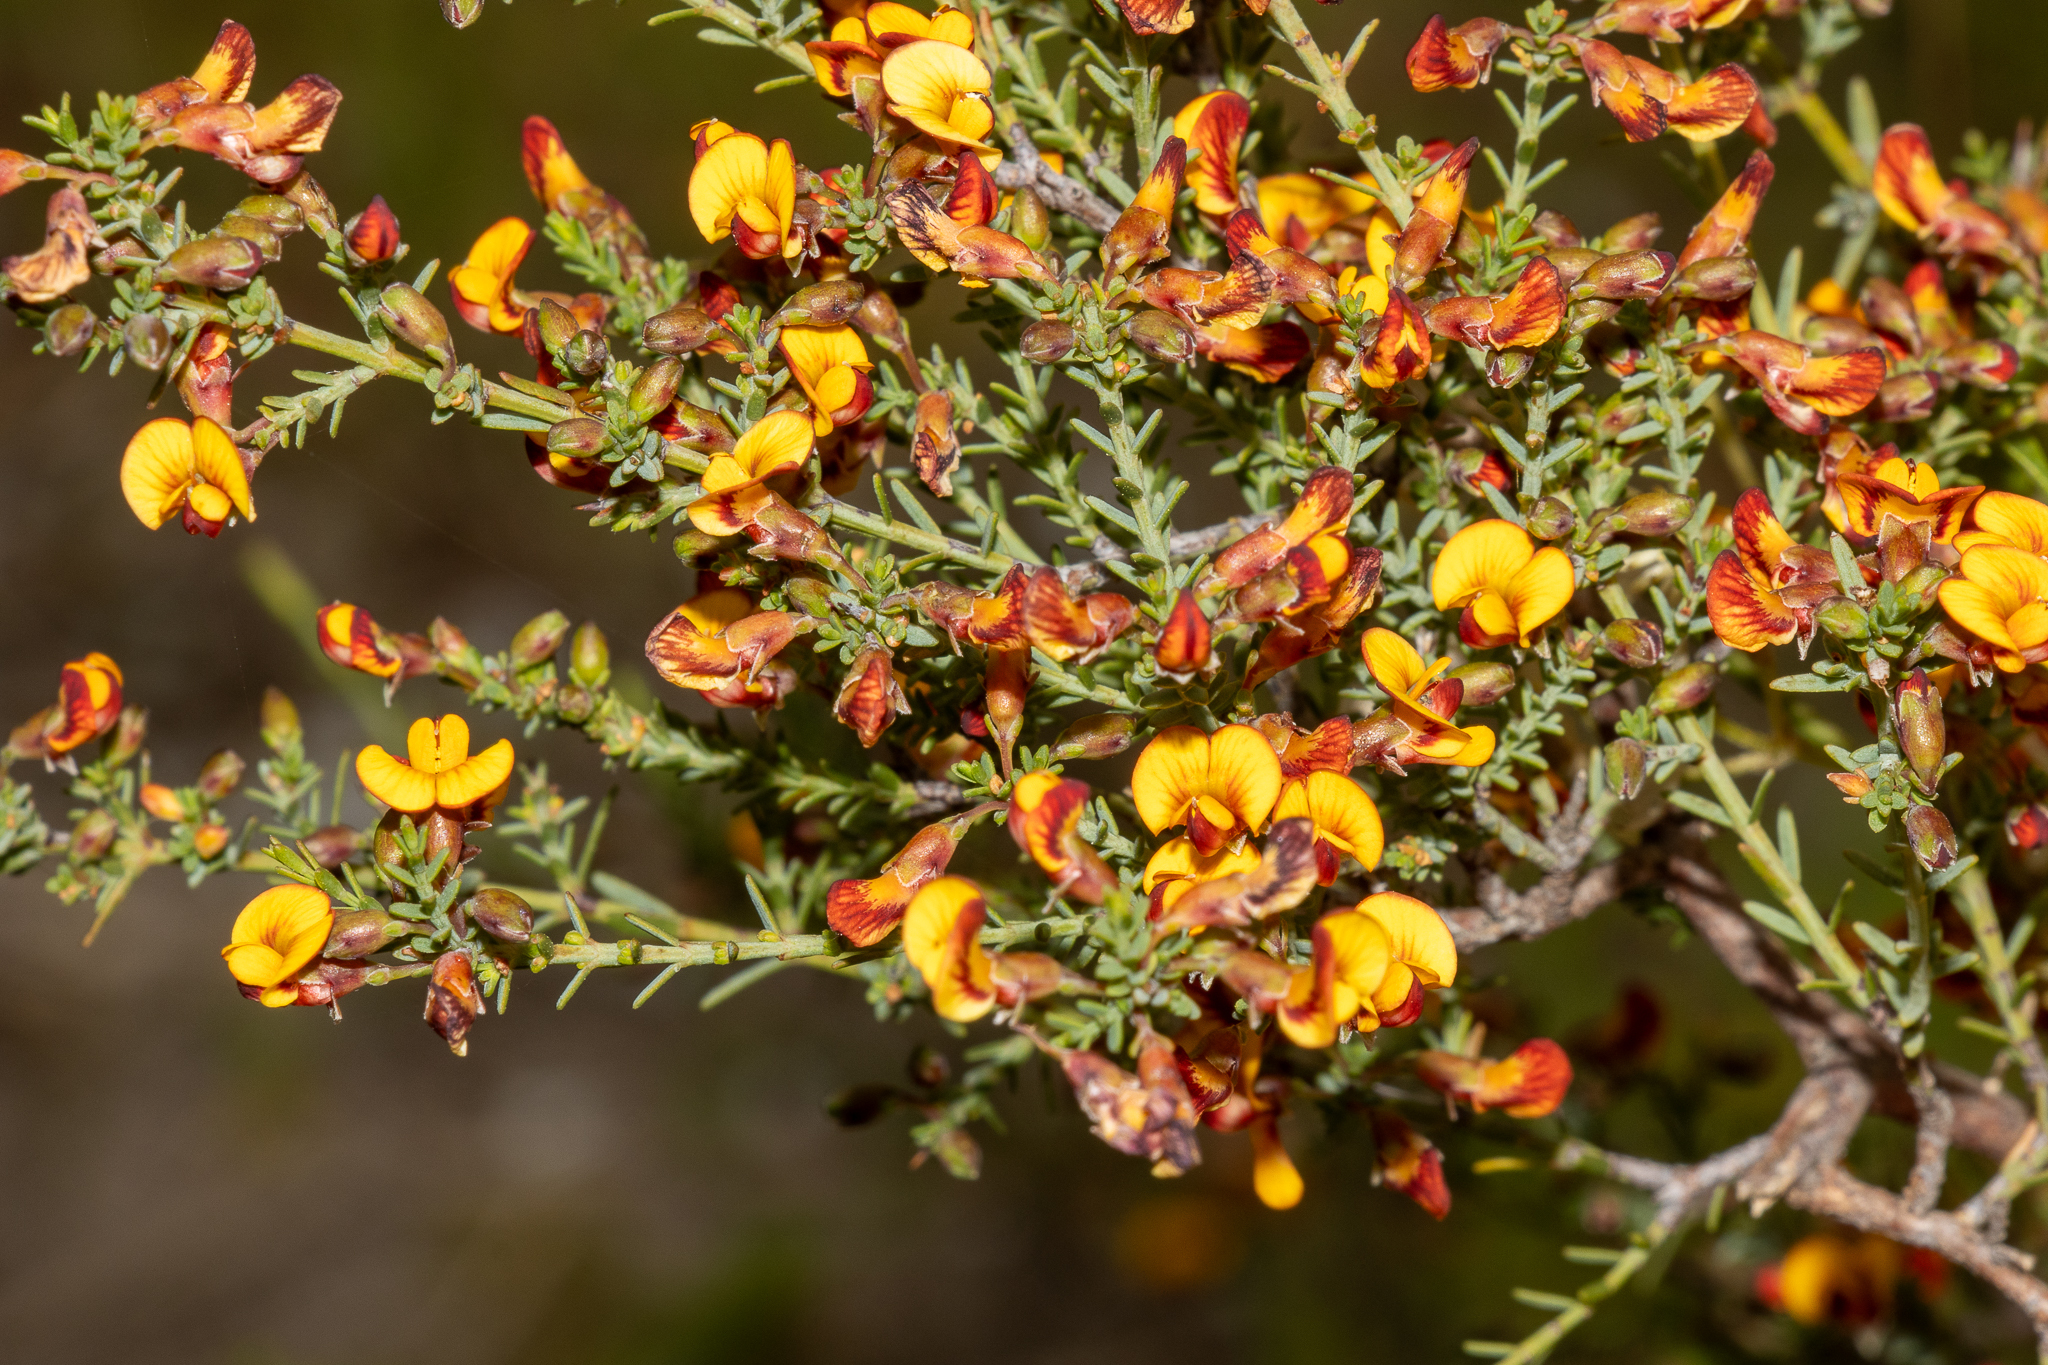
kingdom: Plantae
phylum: Tracheophyta
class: Magnoliopsida
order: Fabales
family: Fabaceae
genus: Eutaxia
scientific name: Eutaxia microphylla
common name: Mallee bush-pea
